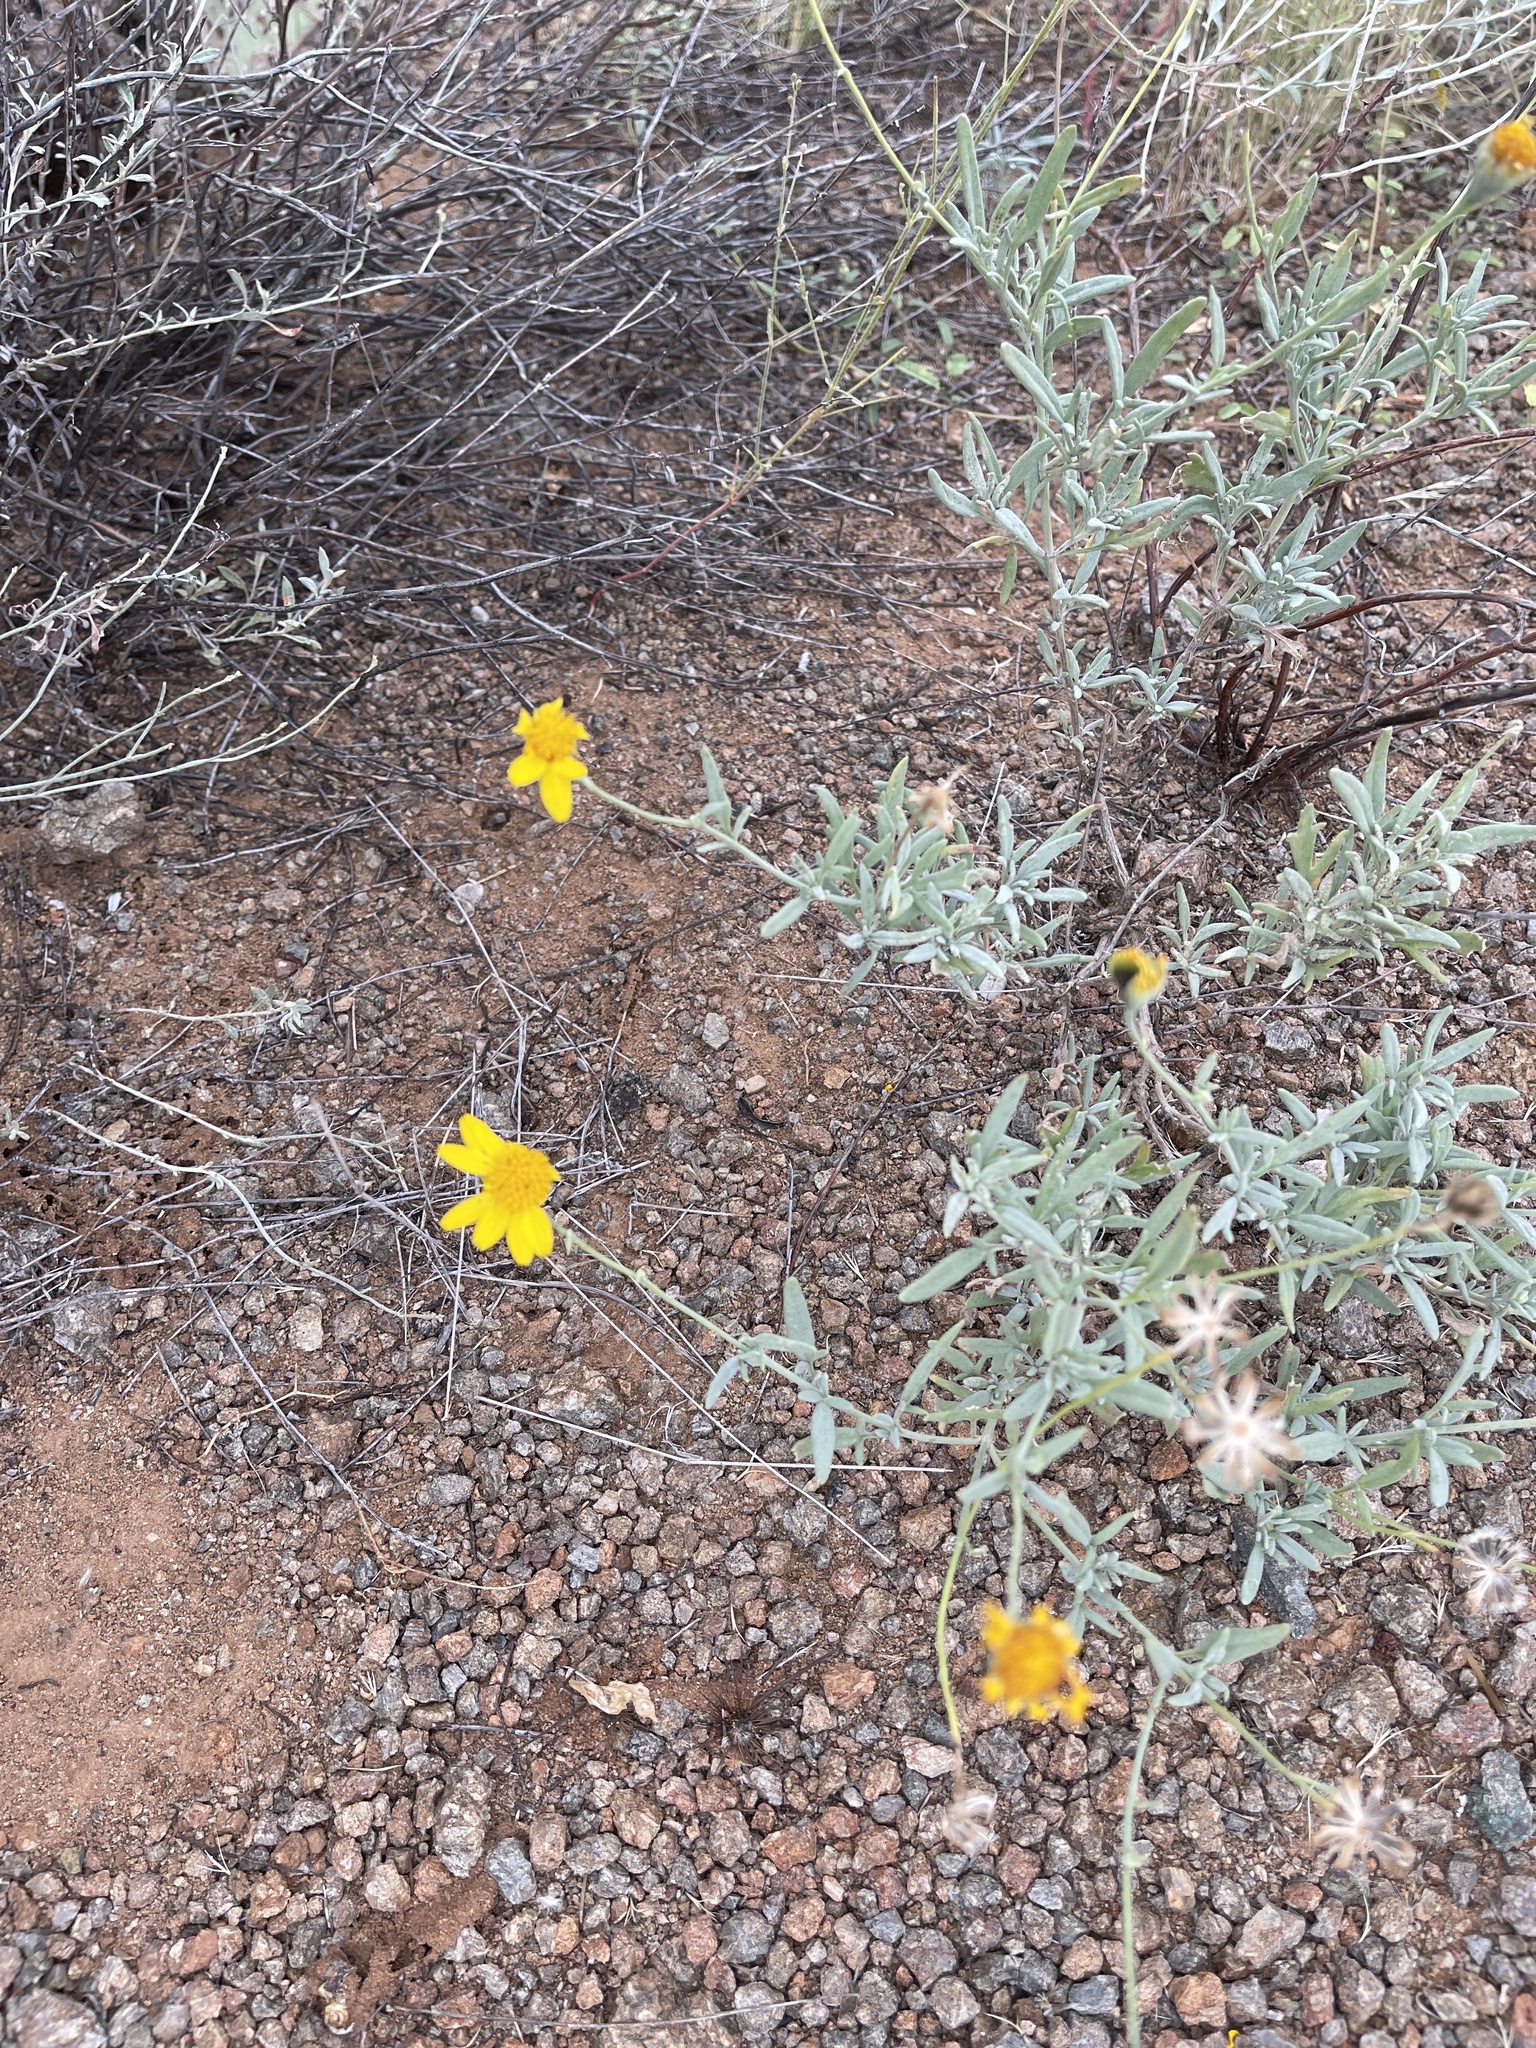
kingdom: Plantae
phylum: Tracheophyta
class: Magnoliopsida
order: Asterales
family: Asteraceae
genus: Picradeniopsis
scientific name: Picradeniopsis absinthifolia
